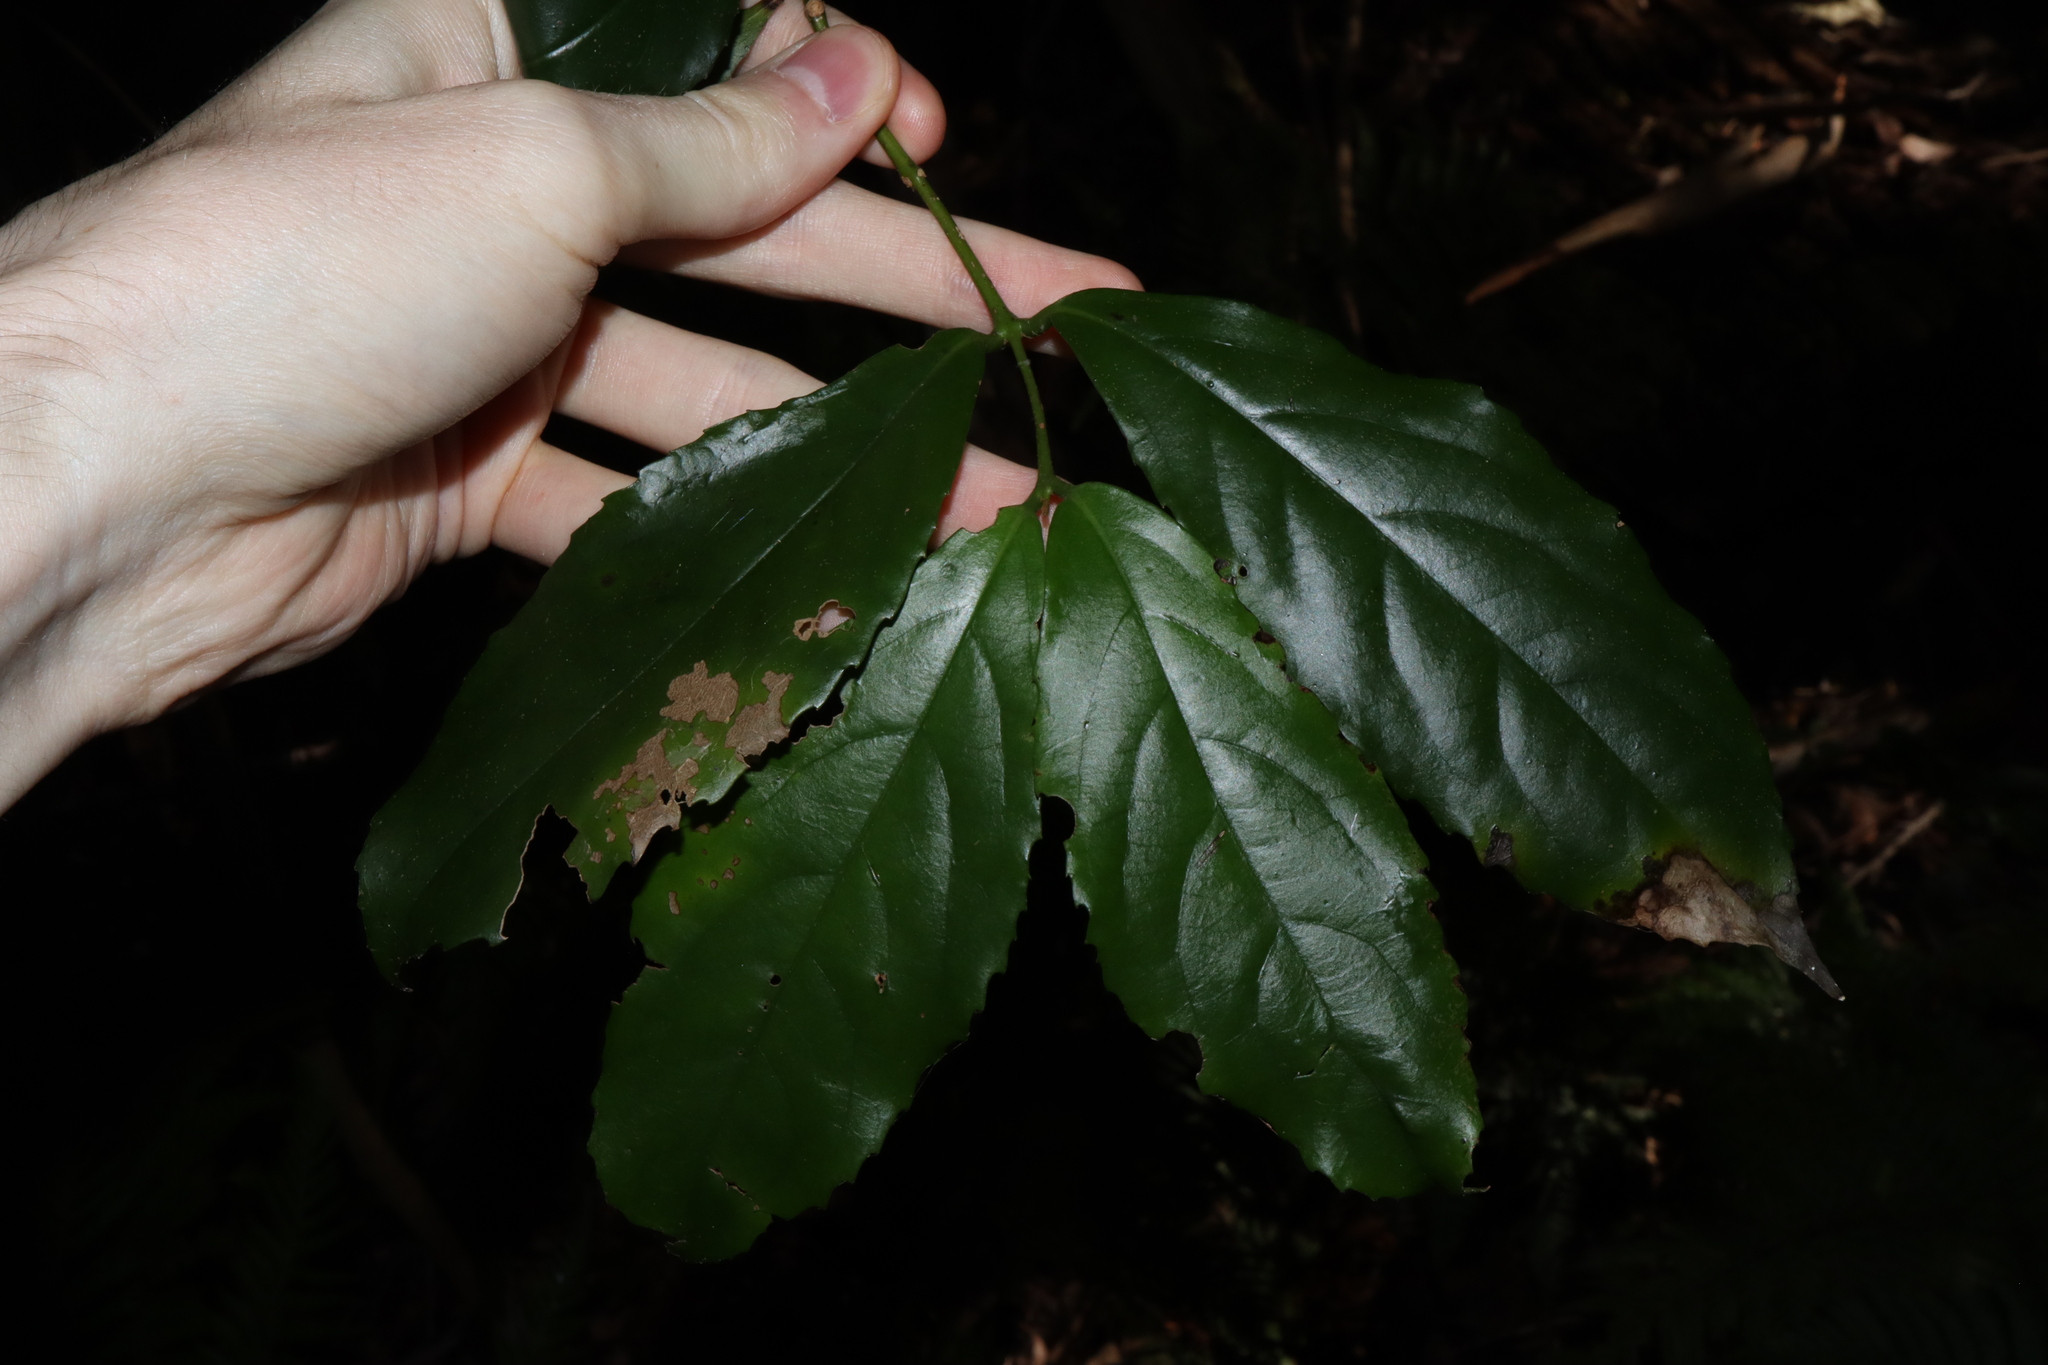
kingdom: Plantae
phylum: Tracheophyta
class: Magnoliopsida
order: Laurales
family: Atherospermataceae
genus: Daphnandra
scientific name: Daphnandra micrantha
